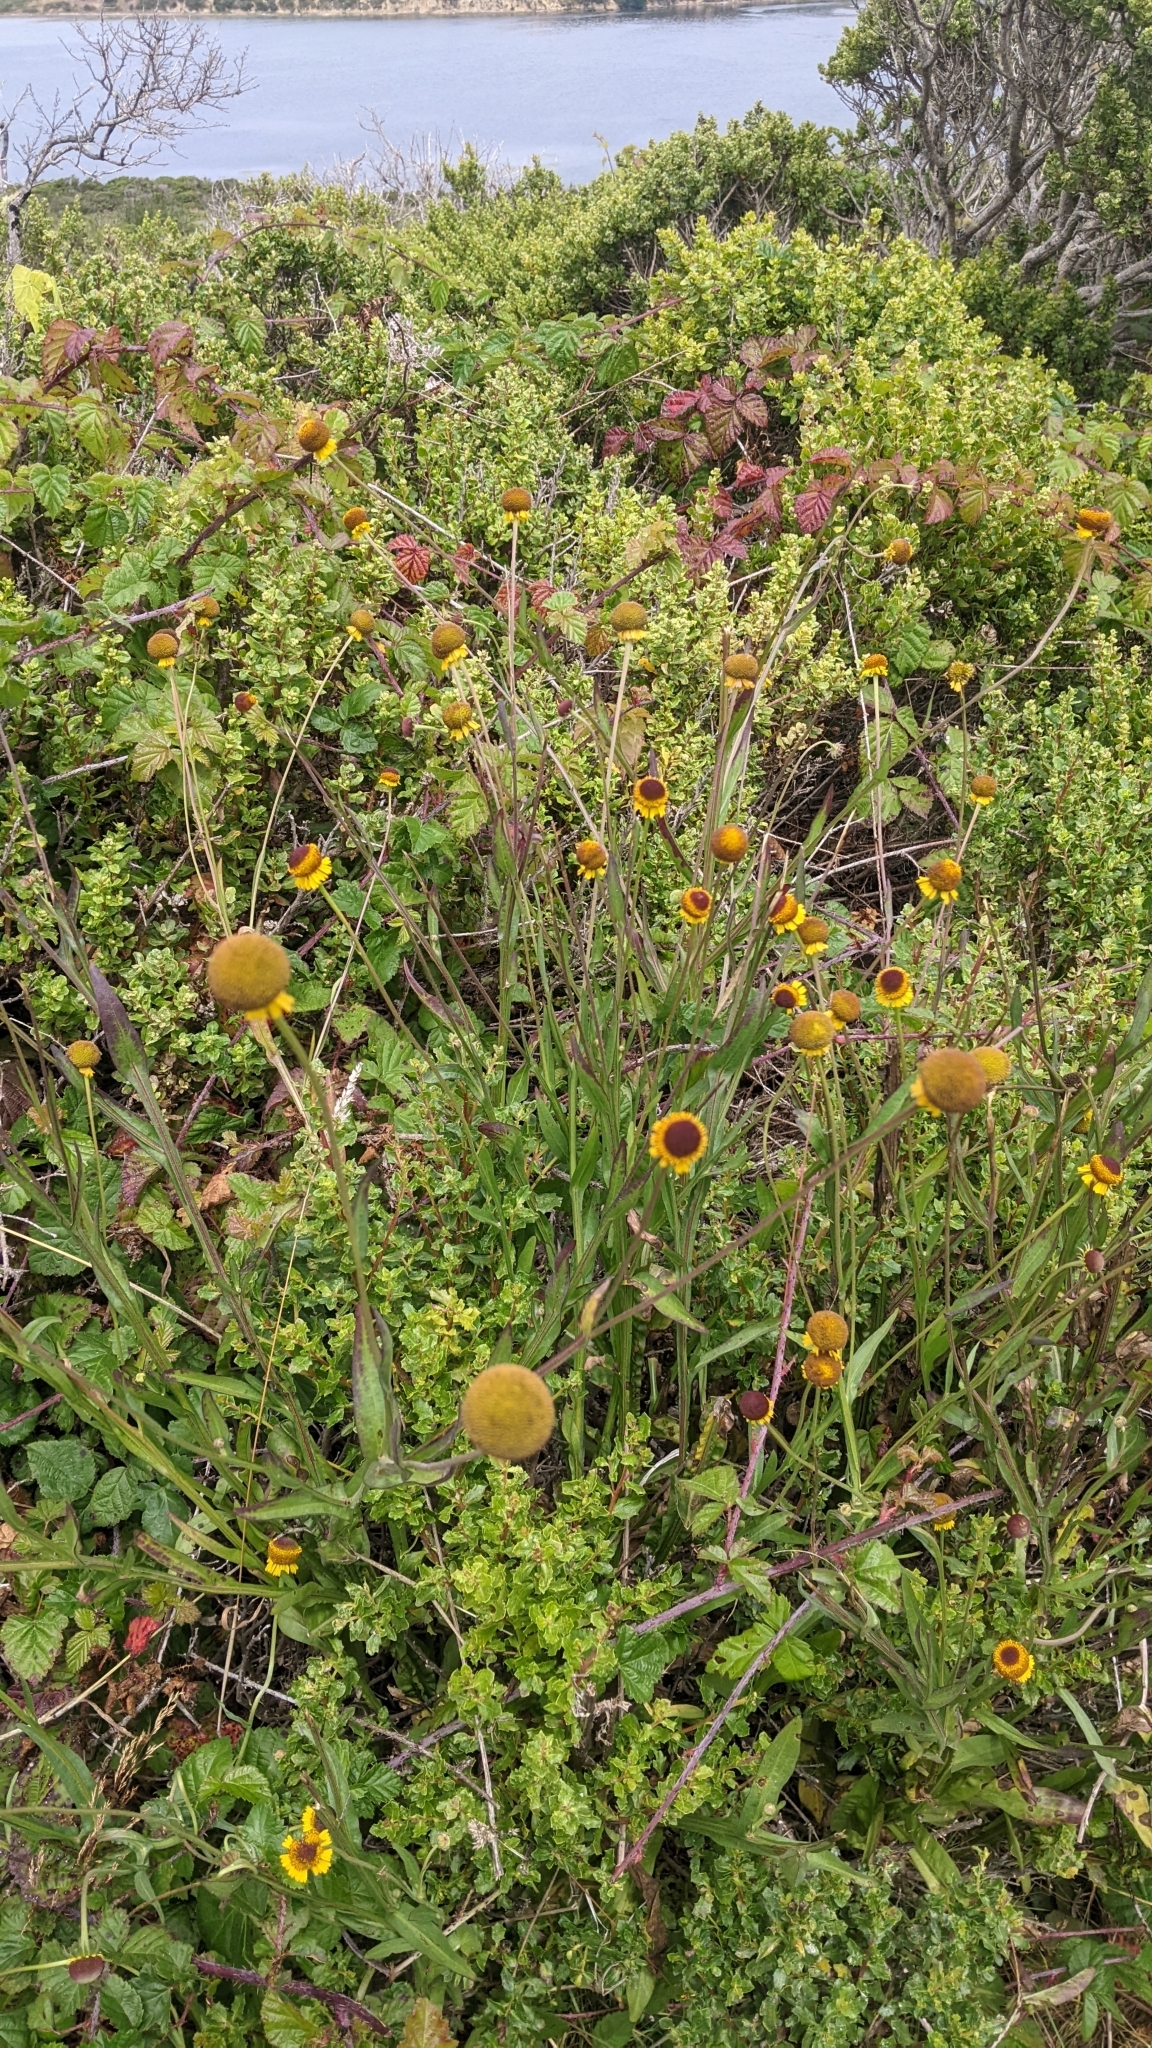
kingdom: Plantae
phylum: Tracheophyta
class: Magnoliopsida
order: Asterales
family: Asteraceae
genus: Helenium
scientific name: Helenium puberulum
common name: Sneezewort
